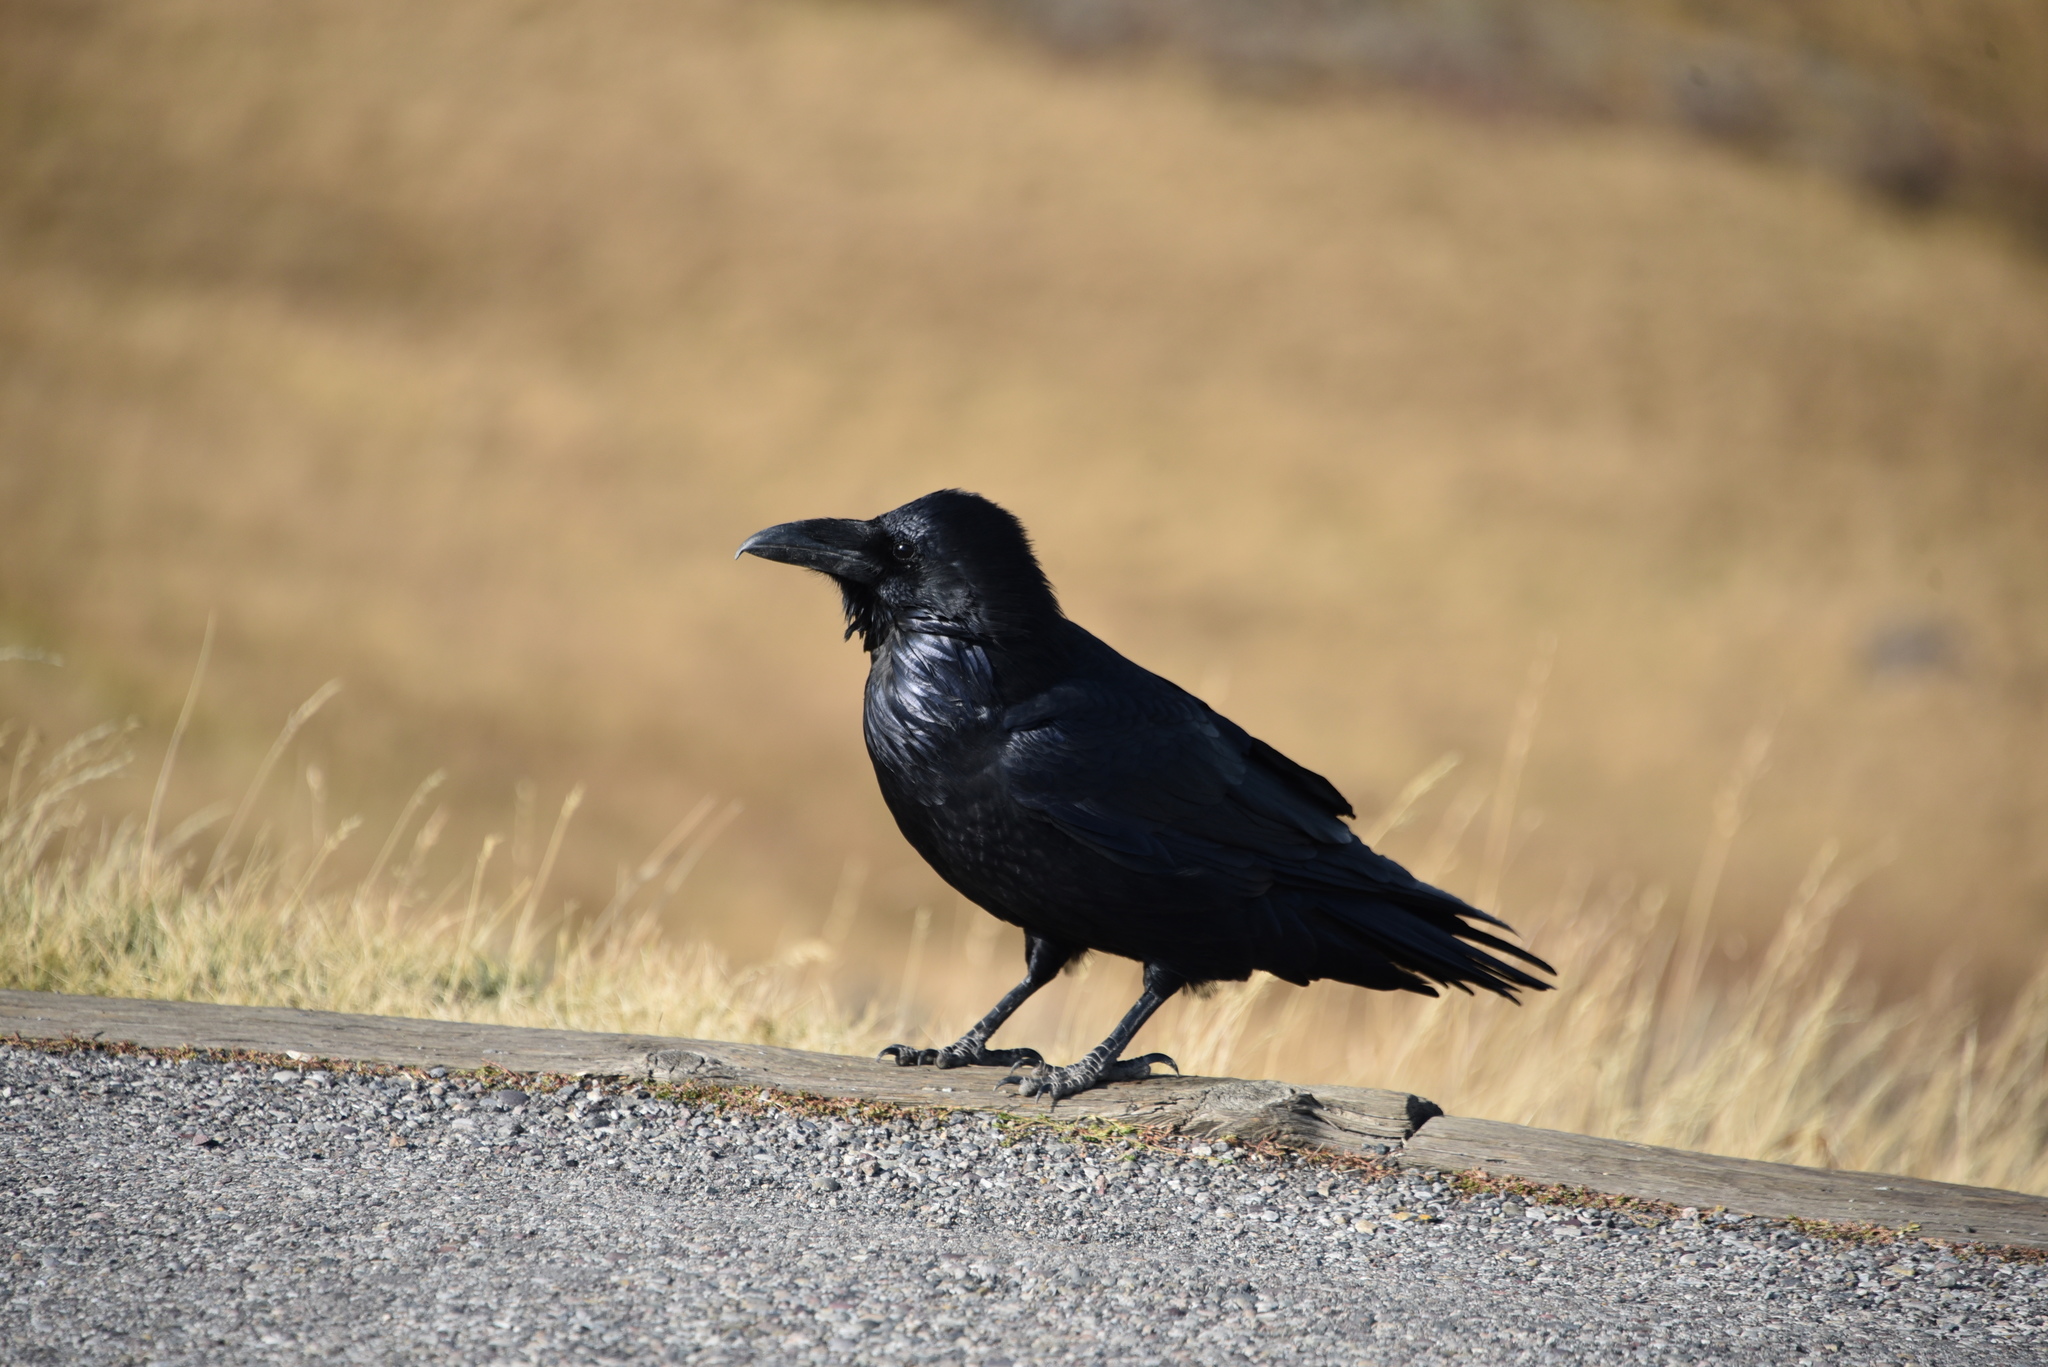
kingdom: Animalia
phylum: Chordata
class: Aves
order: Passeriformes
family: Corvidae
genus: Corvus
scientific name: Corvus corax
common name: Common raven
